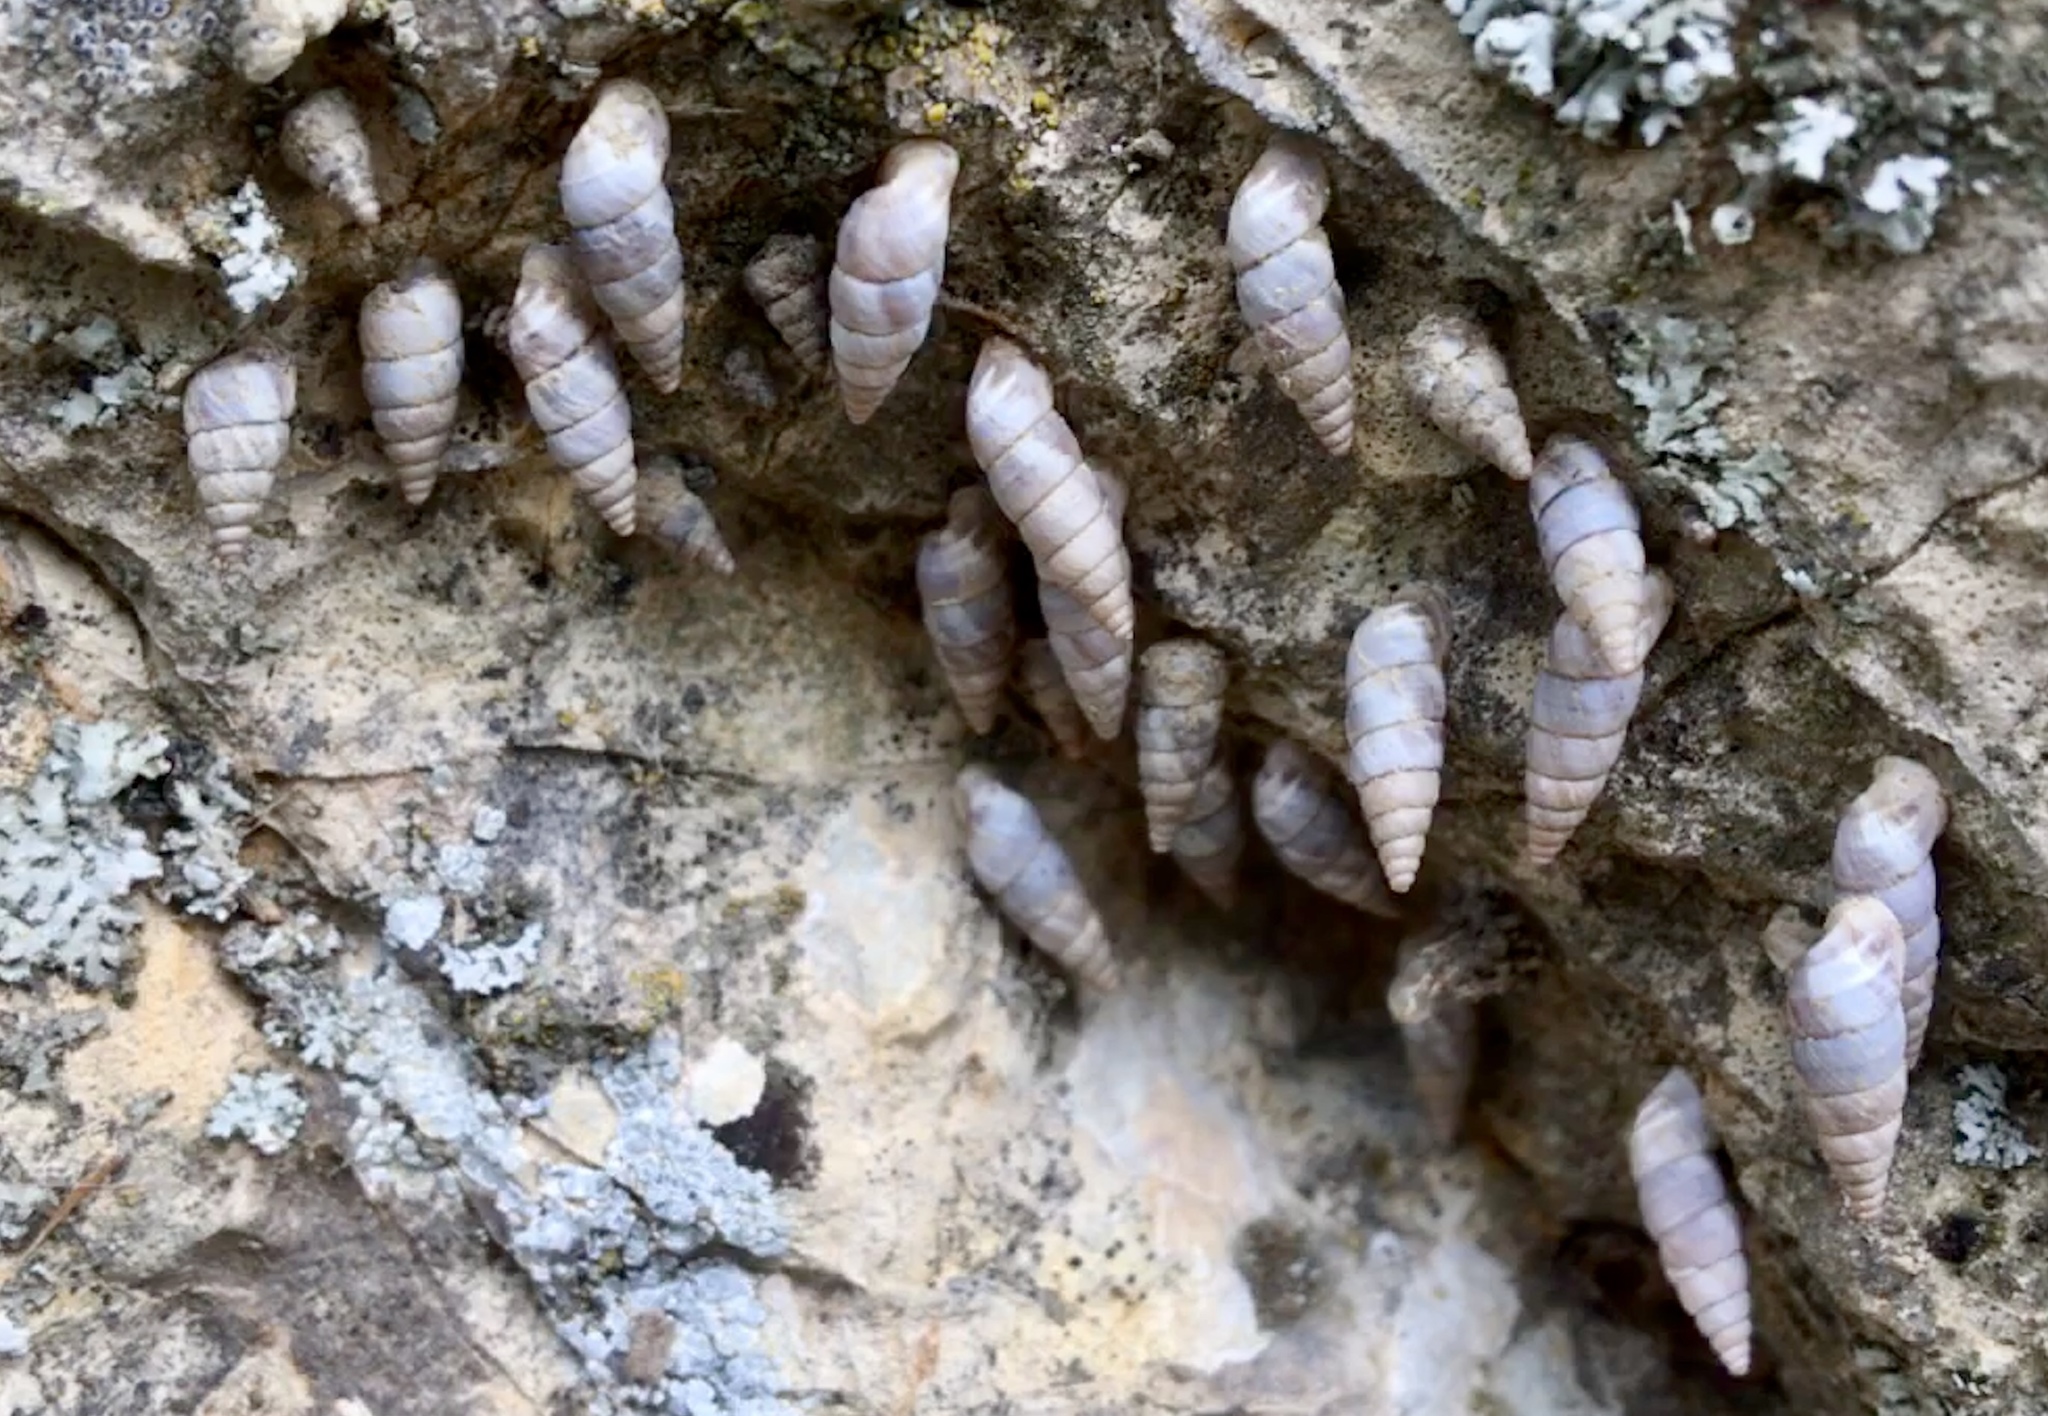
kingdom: Animalia
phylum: Mollusca
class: Gastropoda
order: Stylommatophora
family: Chondrinidae
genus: Solatopupa
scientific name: Solatopupa similis
